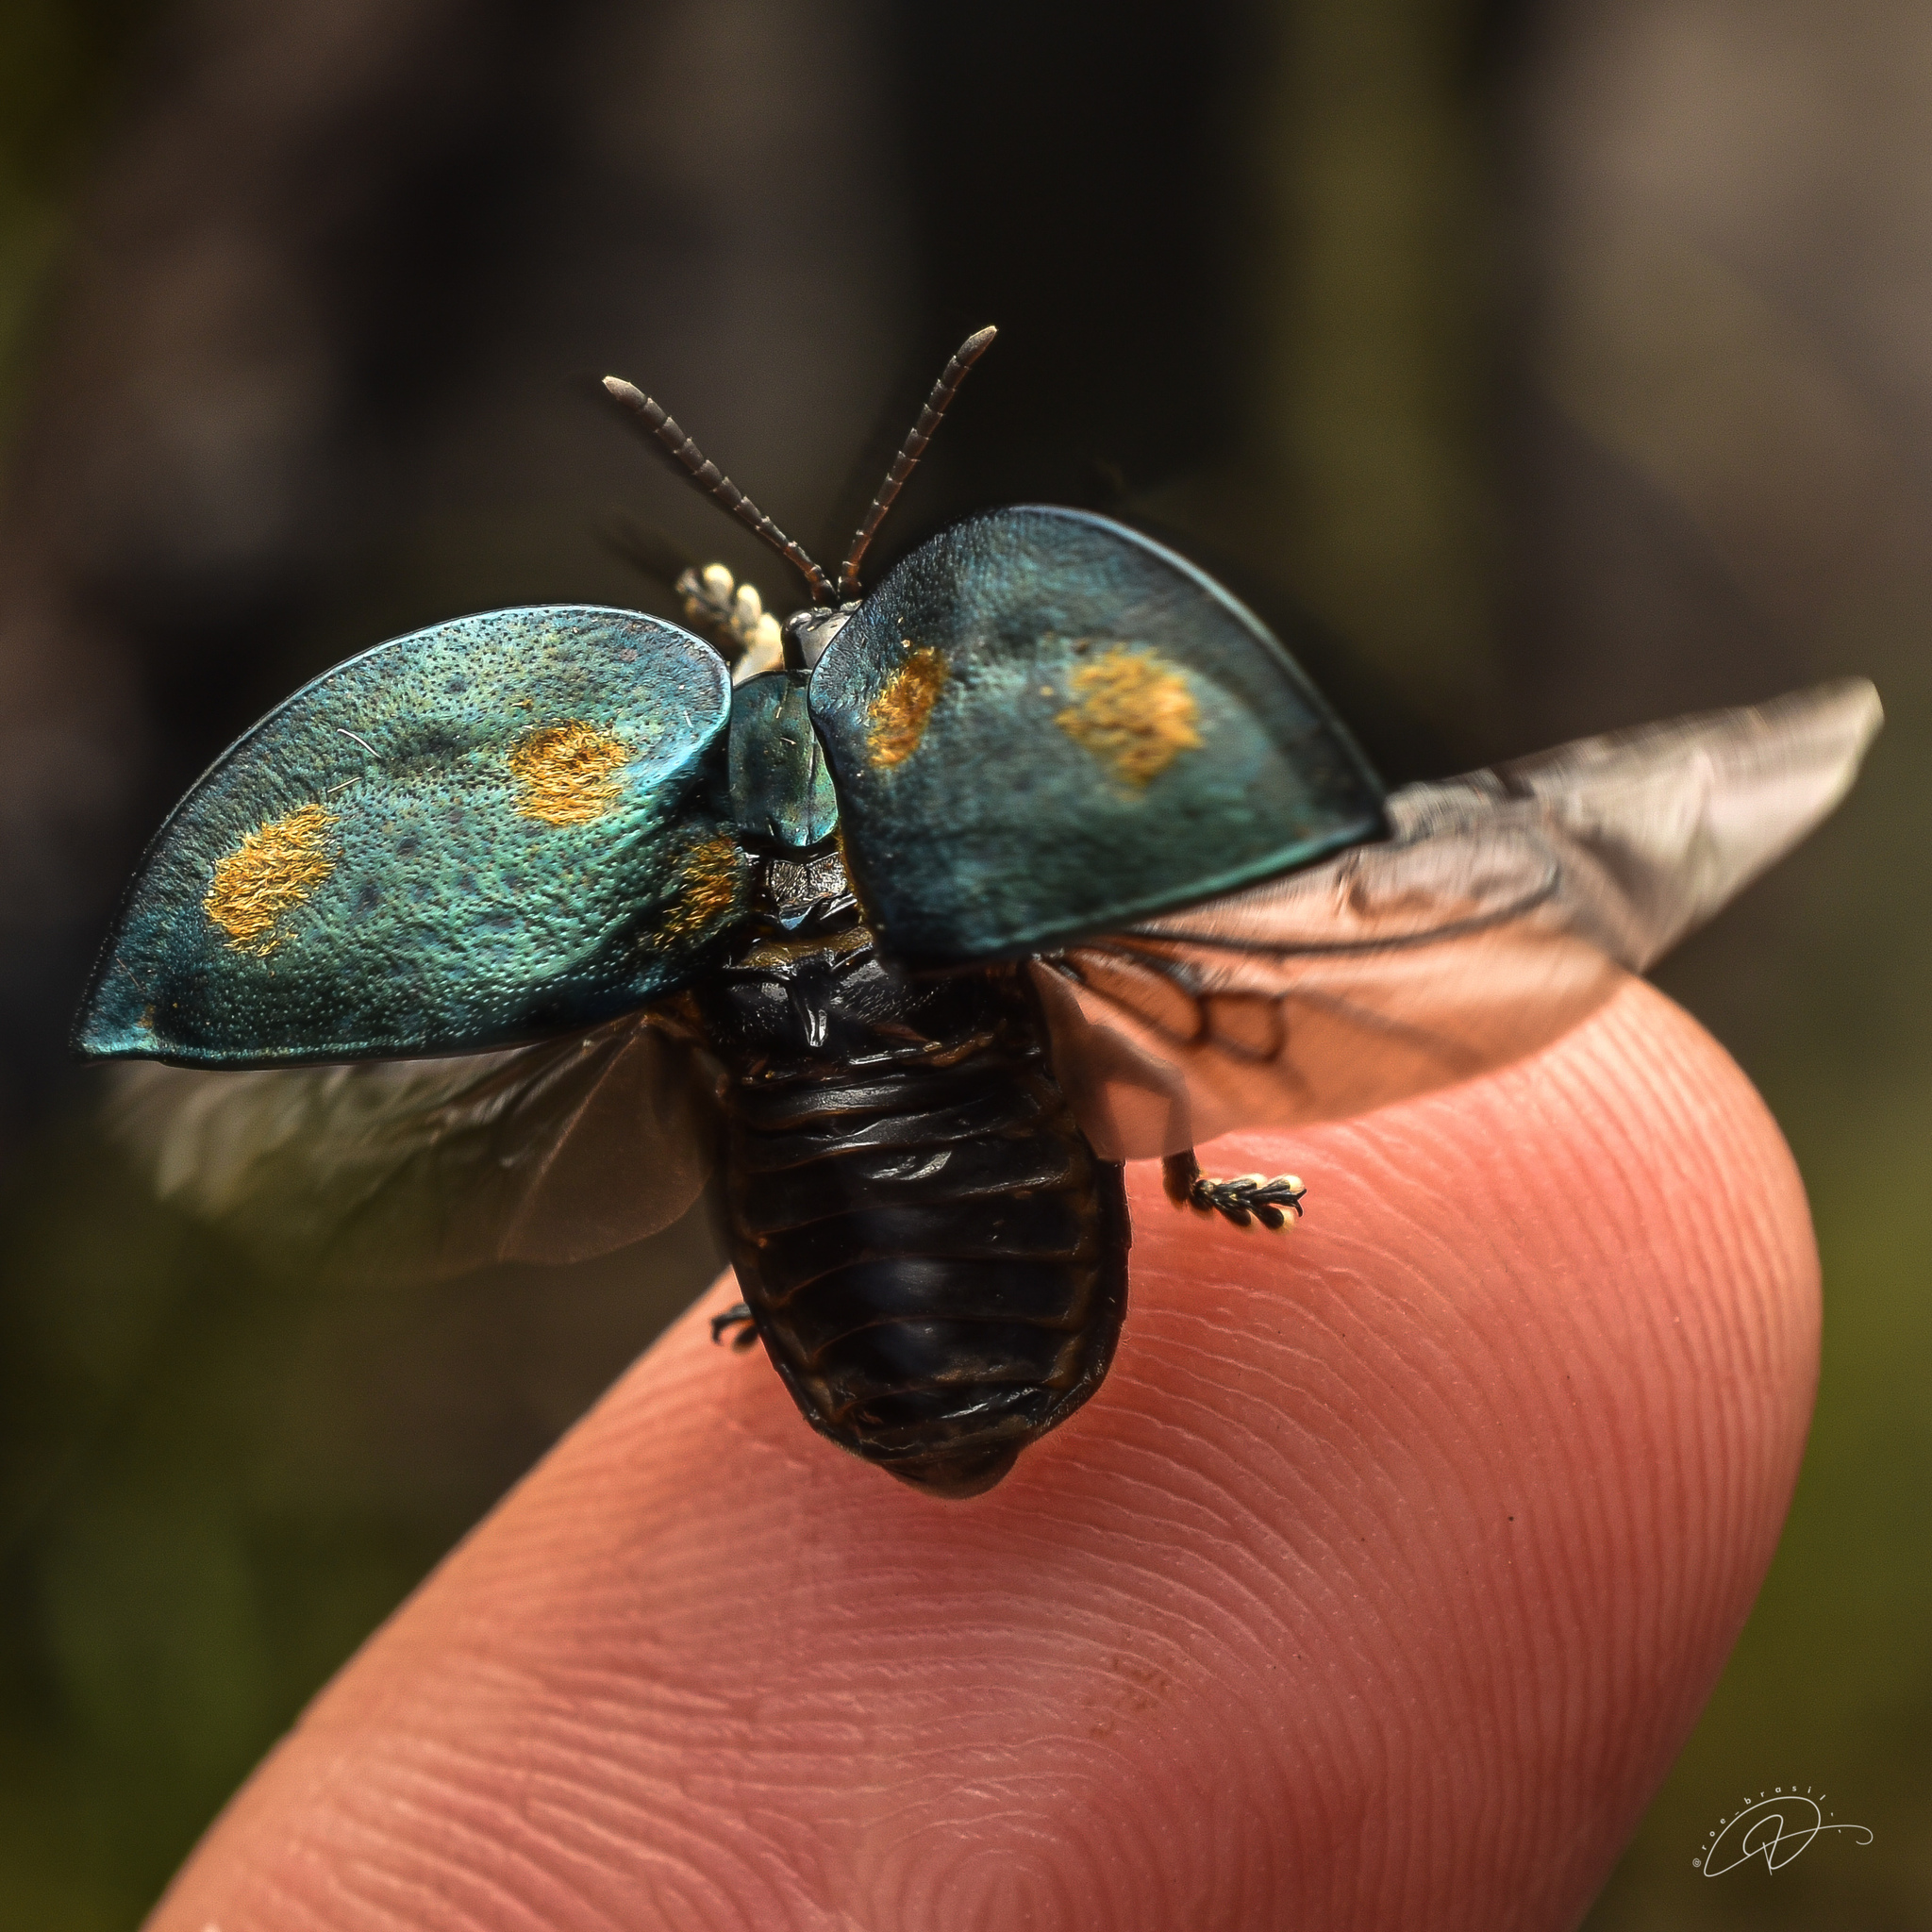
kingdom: Animalia
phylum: Arthropoda
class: Insecta
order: Coleoptera
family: Chrysomelidae
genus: Stolas
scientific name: Stolas oblita
